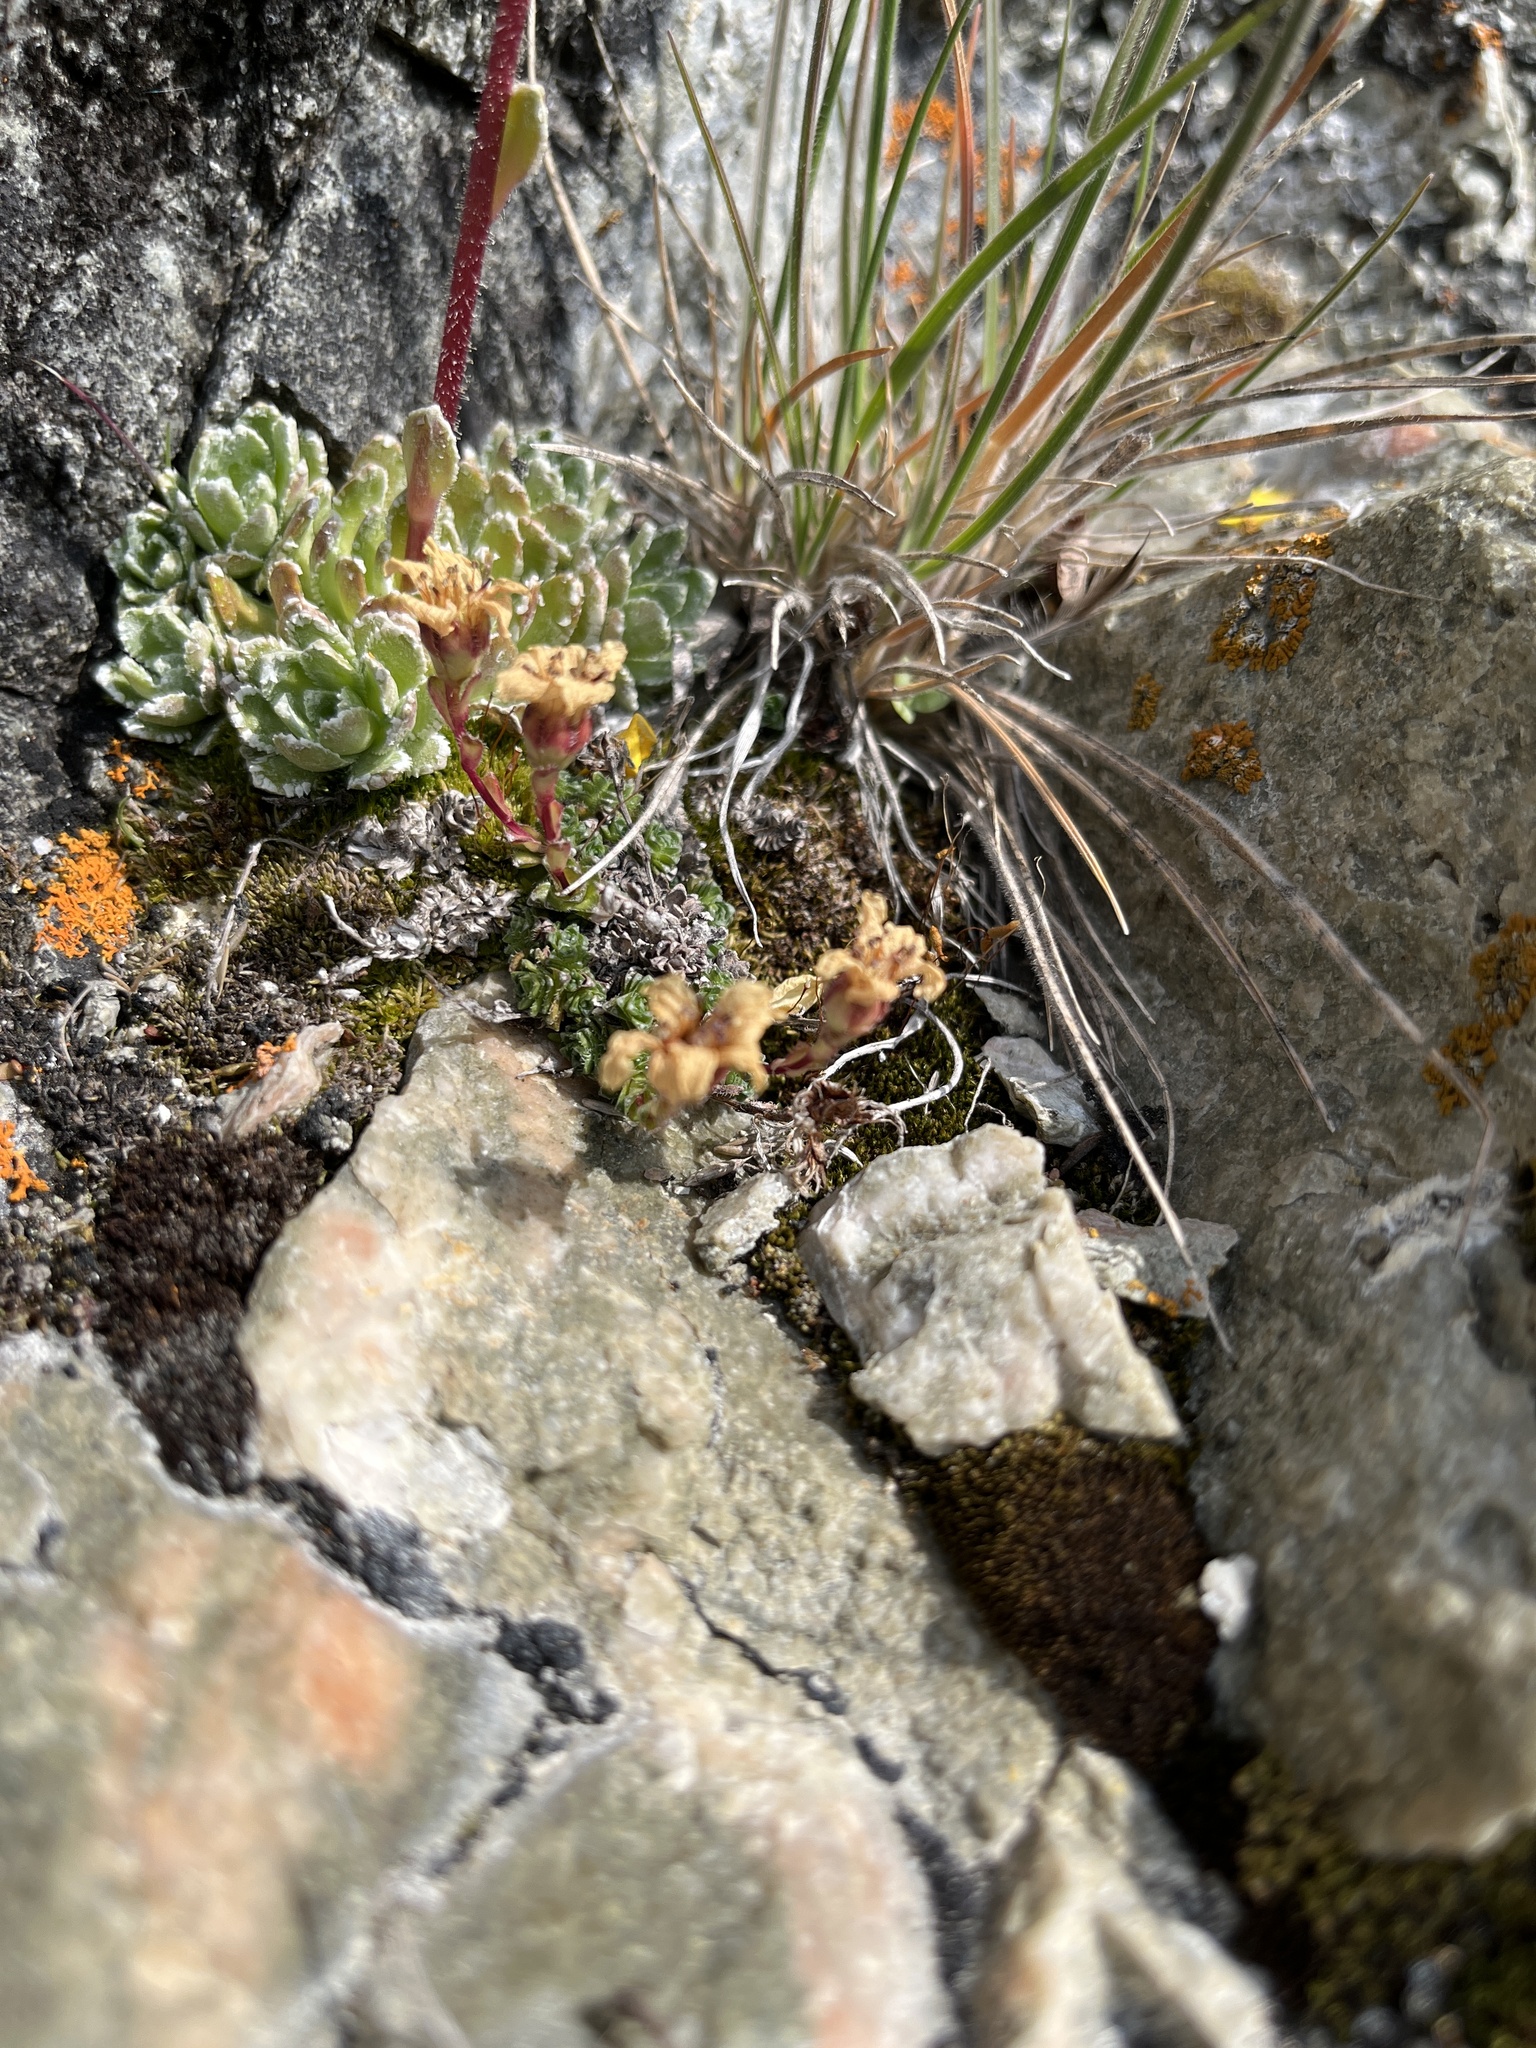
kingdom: Plantae
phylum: Tracheophyta
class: Magnoliopsida
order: Saxifragales
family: Saxifragaceae
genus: Saxifraga
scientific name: Saxifraga oppositifolia
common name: Purple saxifrage
